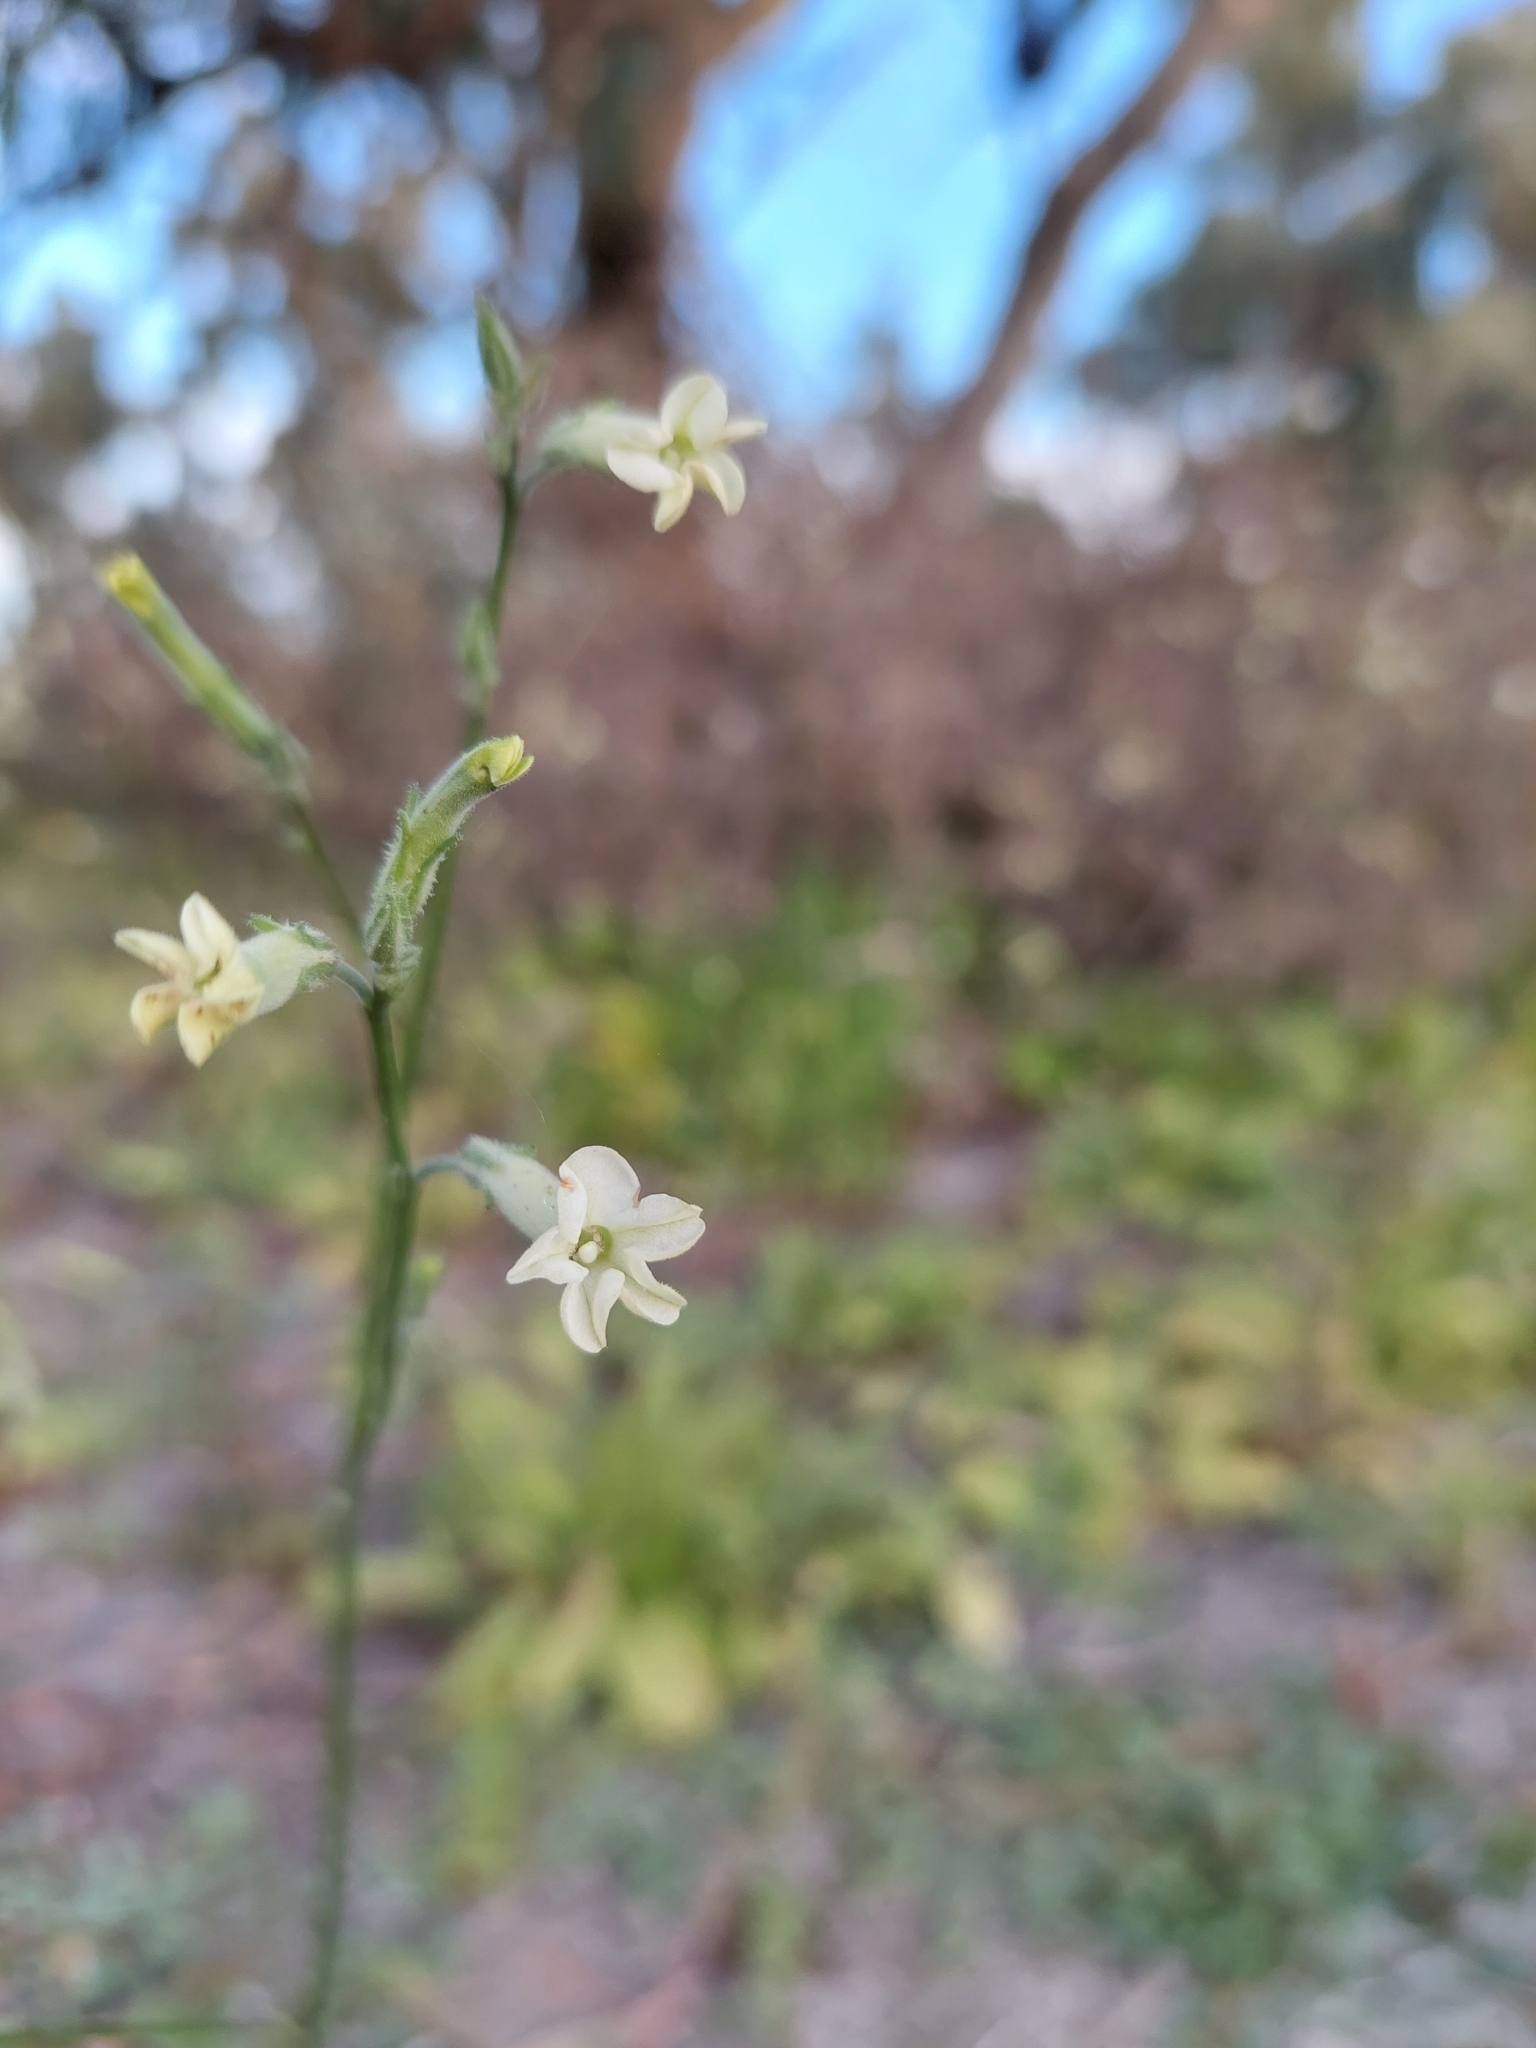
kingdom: Plantae
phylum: Tracheophyta
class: Magnoliopsida
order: Solanales
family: Solanaceae
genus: Nicotiana
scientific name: Nicotiana velutina
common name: Velvet tobacco
